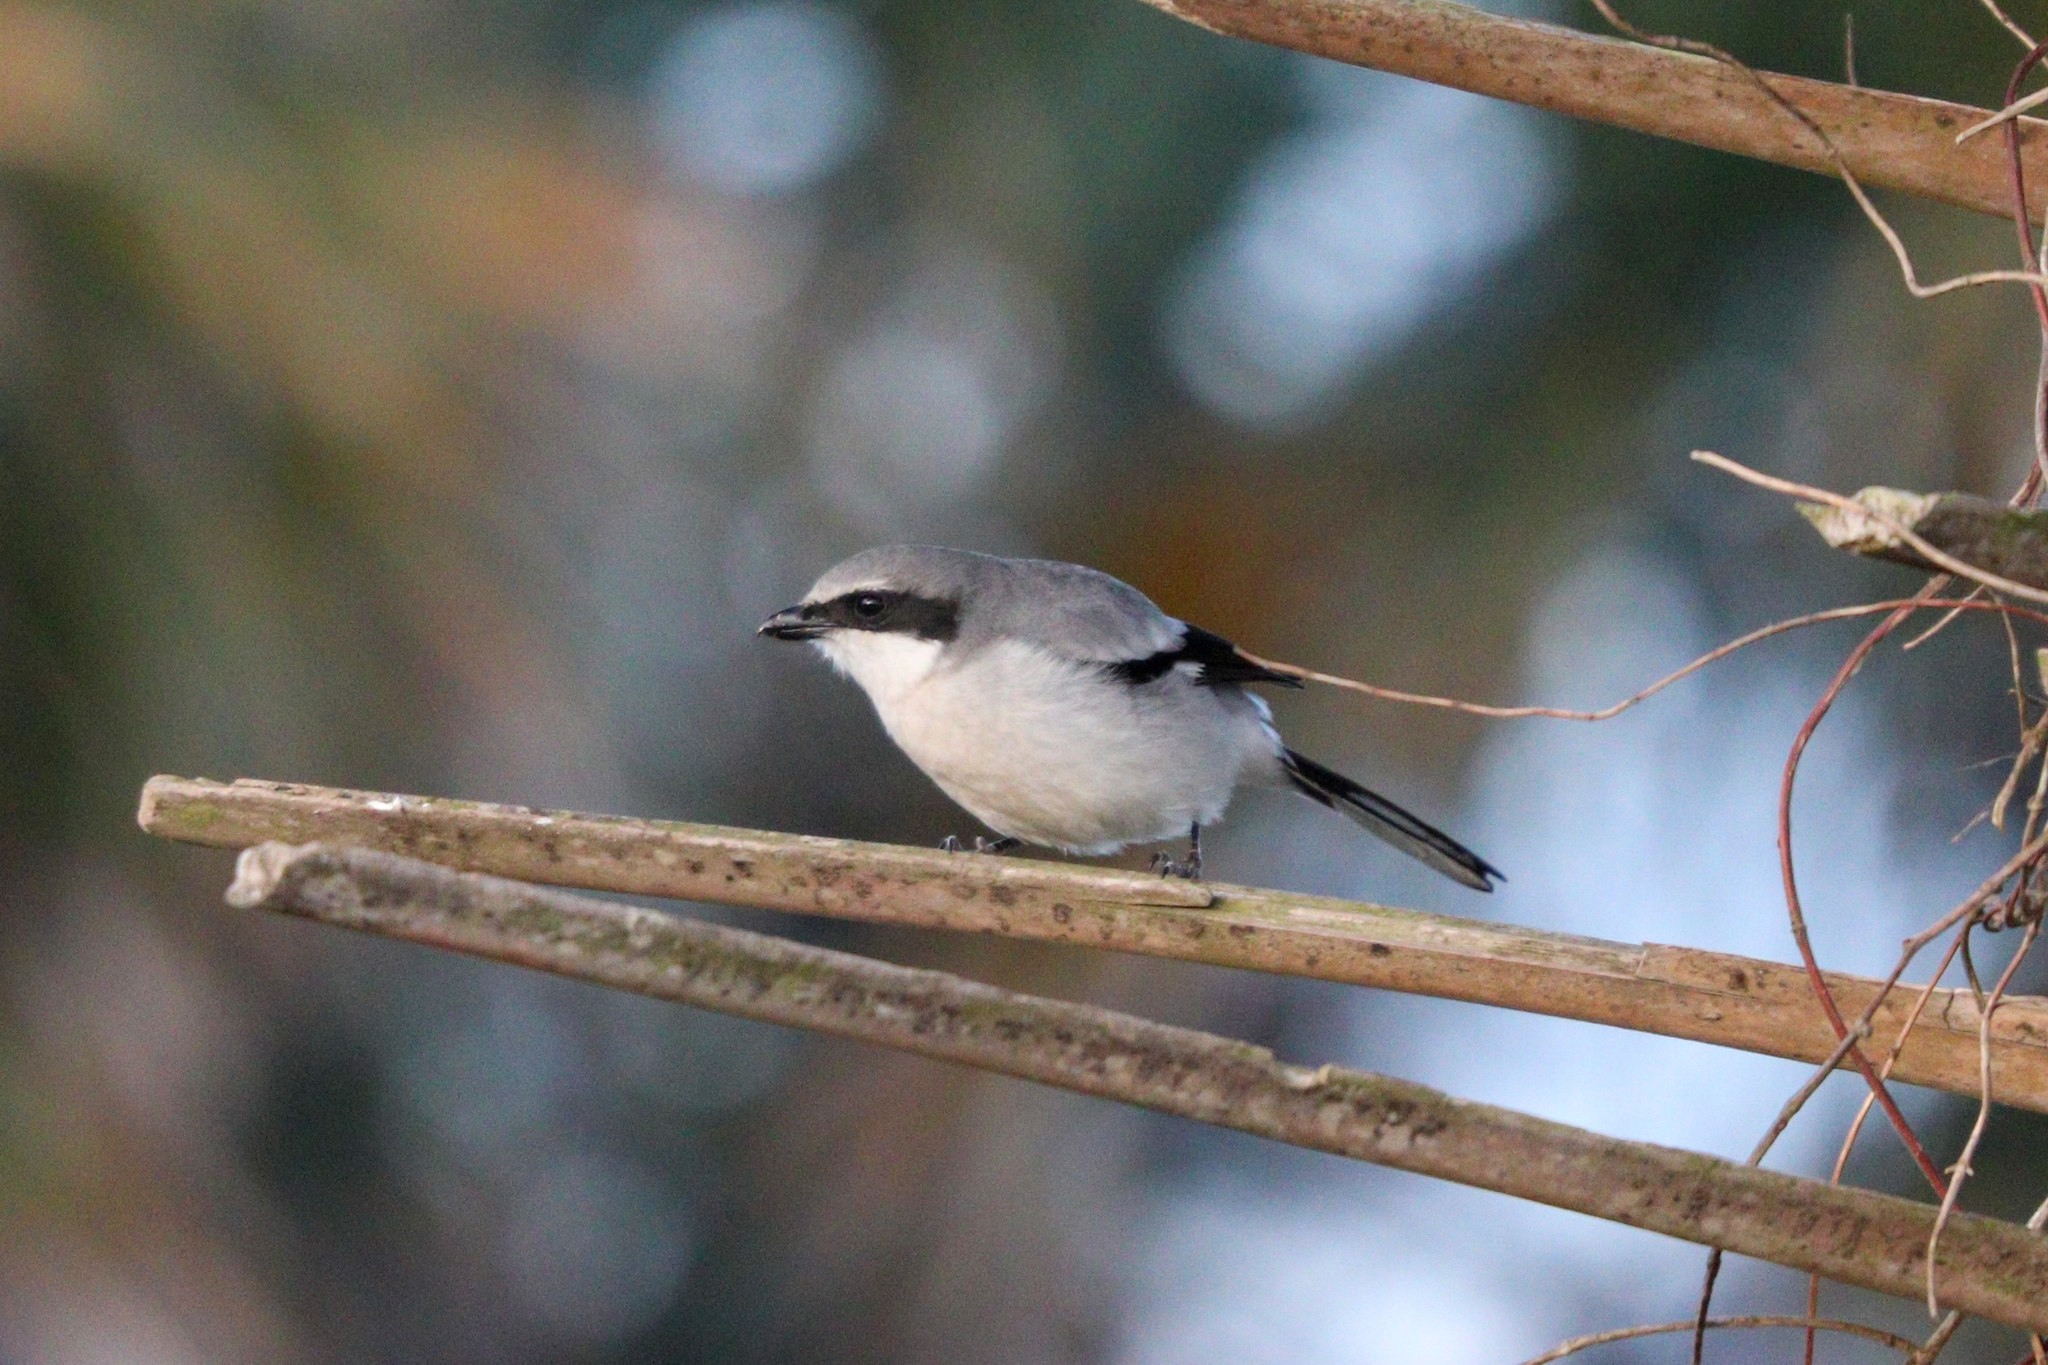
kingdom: Animalia
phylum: Chordata
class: Aves
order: Passeriformes
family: Laniidae
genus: Lanius
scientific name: Lanius ludovicianus
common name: Loggerhead shrike
